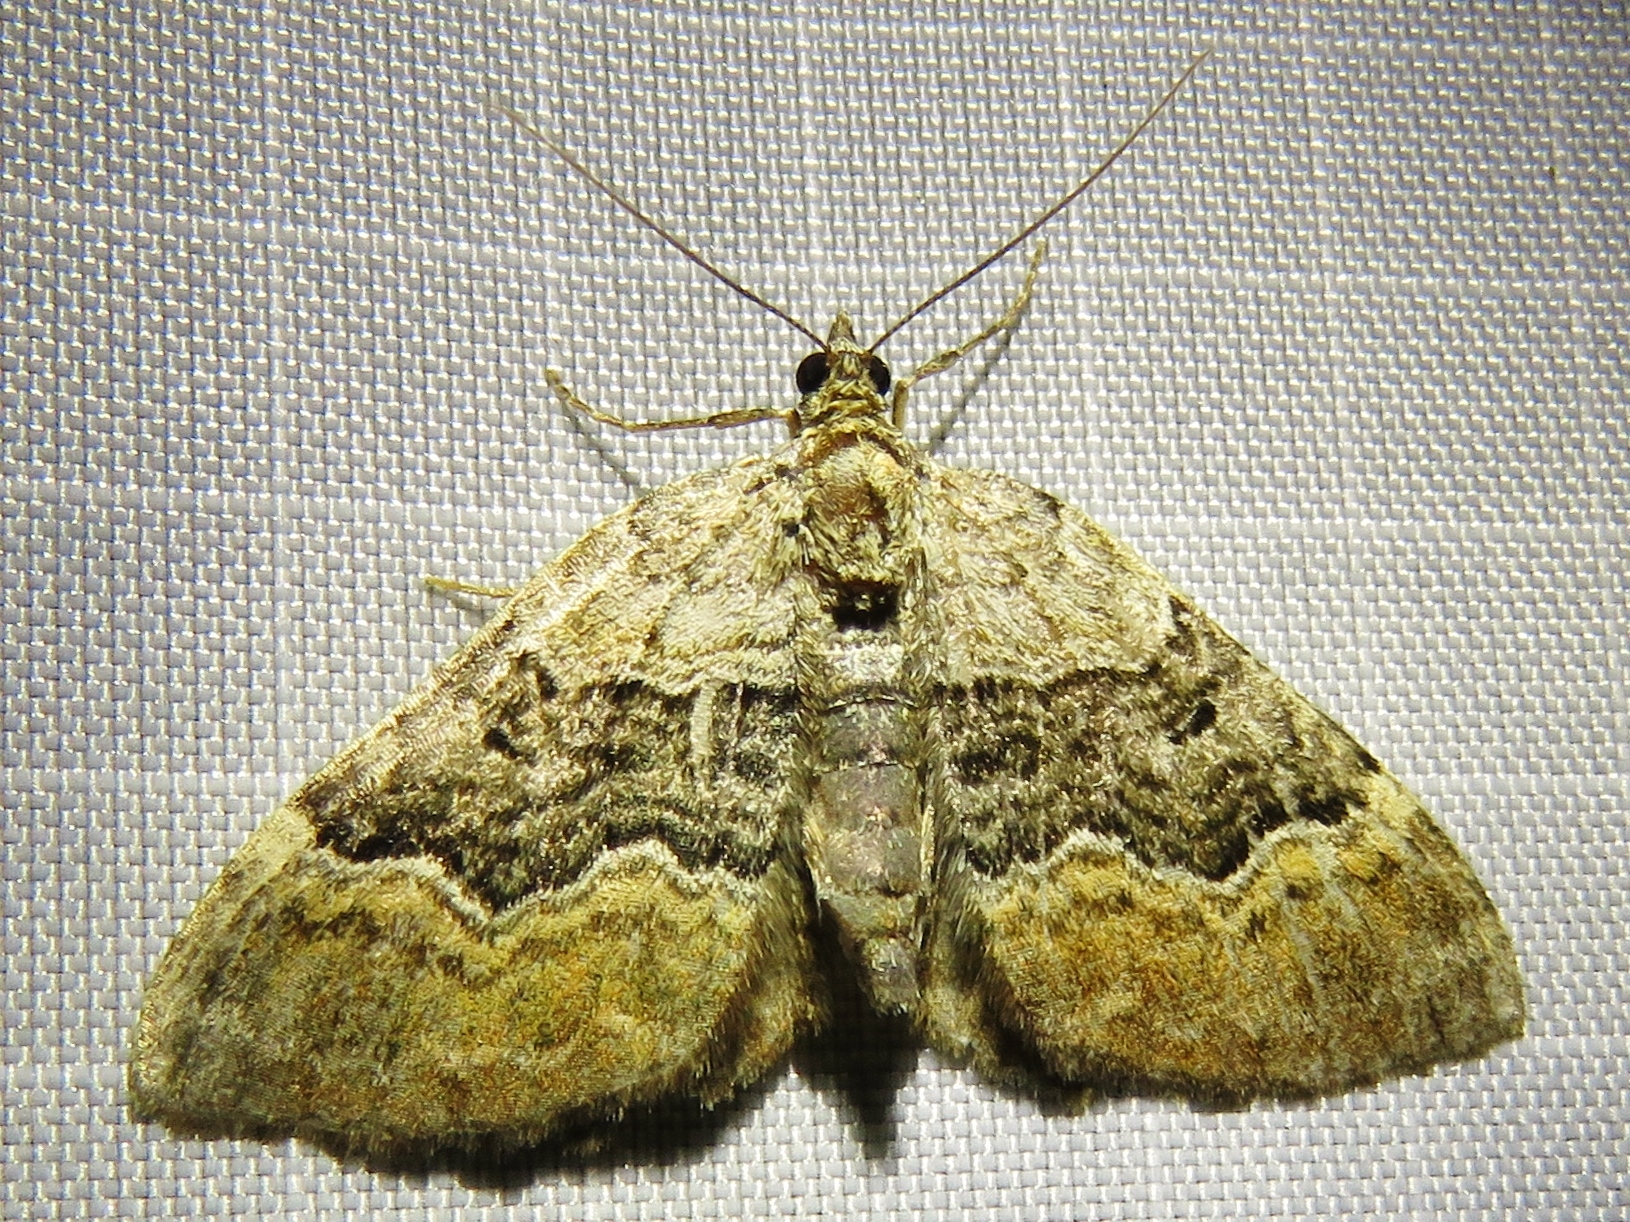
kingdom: Animalia
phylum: Arthropoda
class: Insecta
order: Lepidoptera
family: Geometridae
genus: Xanthorhoe
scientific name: Xanthorhoe quadrifasiata
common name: Large twin-spot carpet
